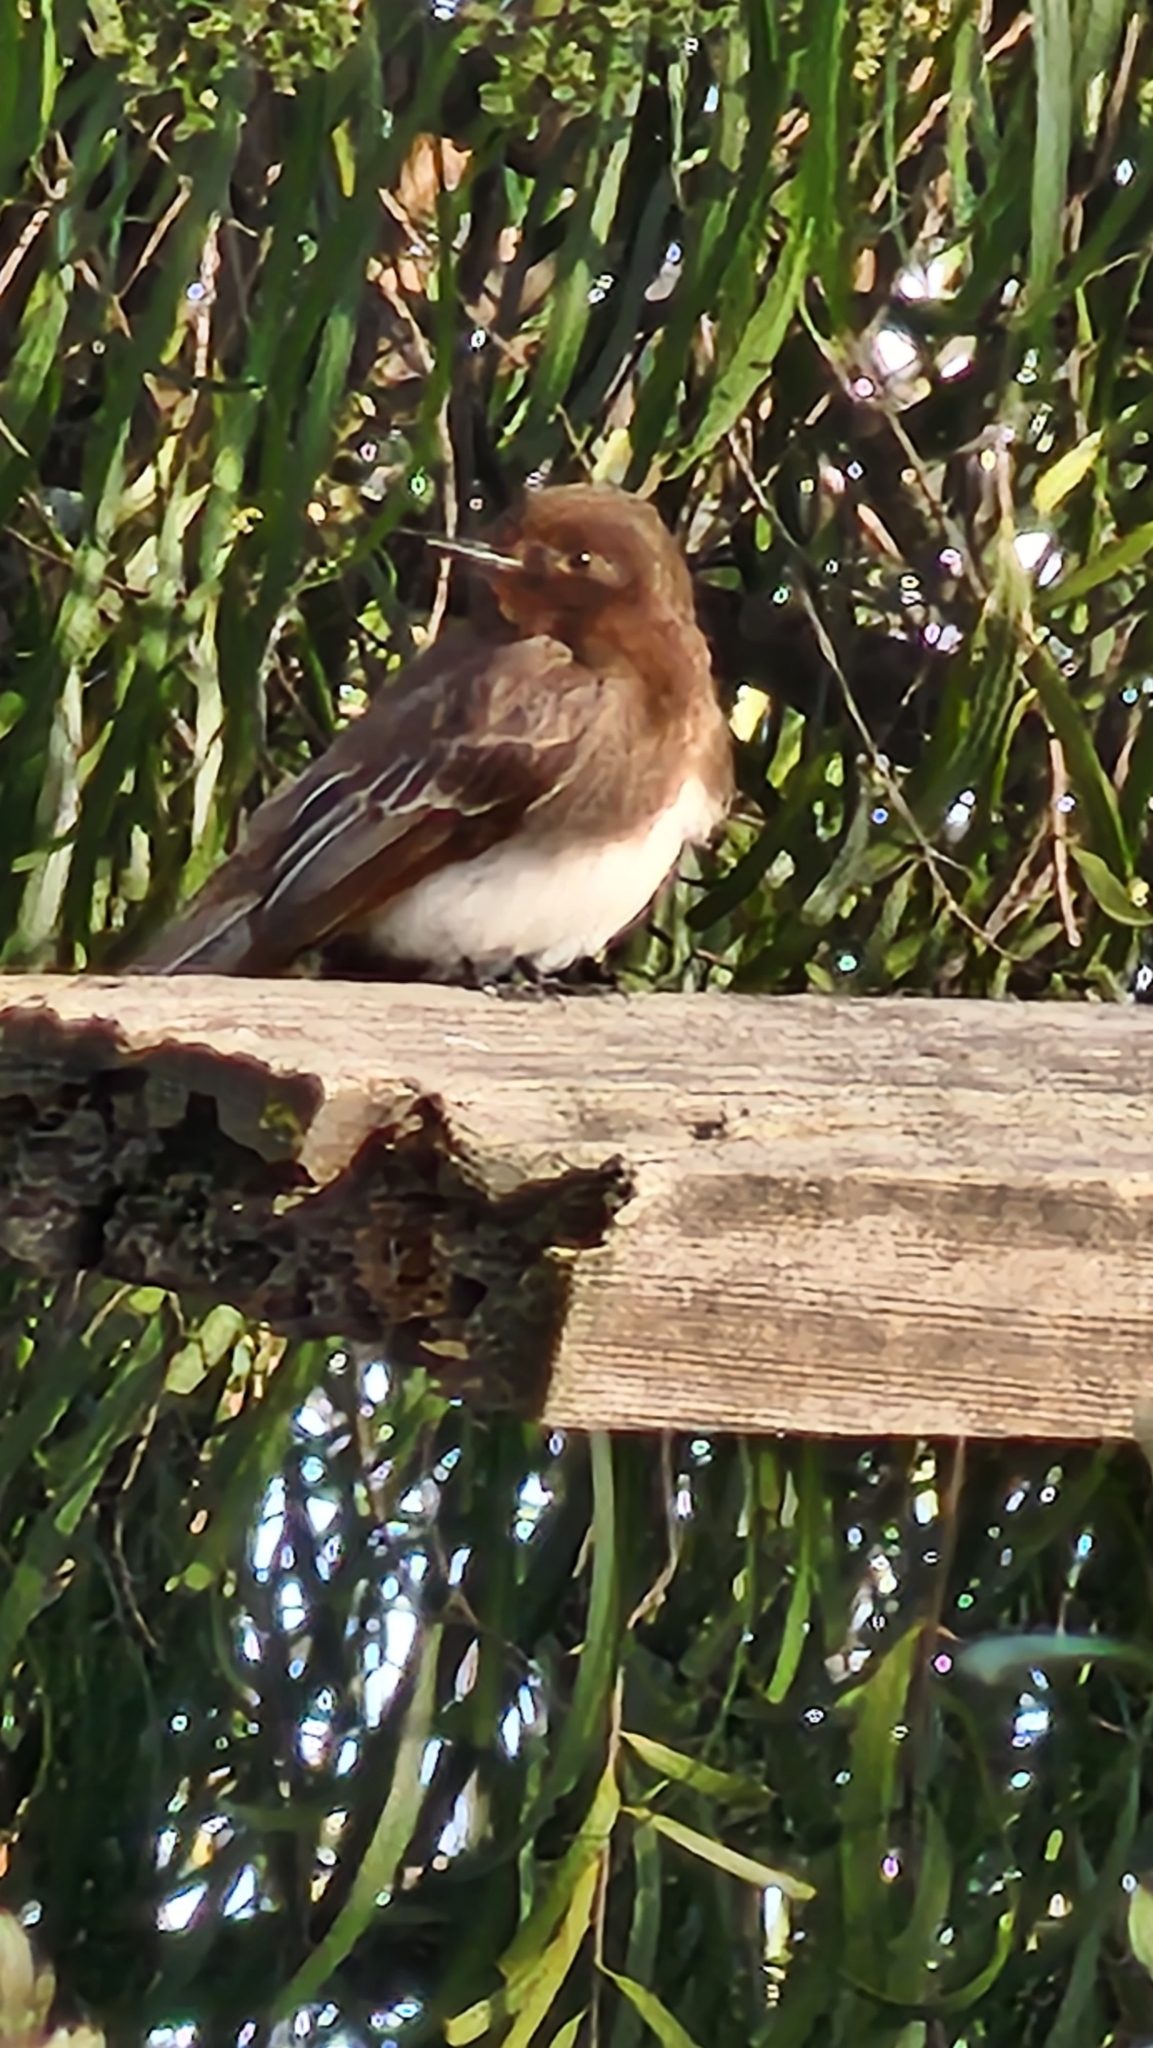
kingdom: Animalia
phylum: Chordata
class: Aves
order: Passeriformes
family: Tyrannidae
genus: Sayornis
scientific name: Sayornis nigricans
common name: Black phoebe
